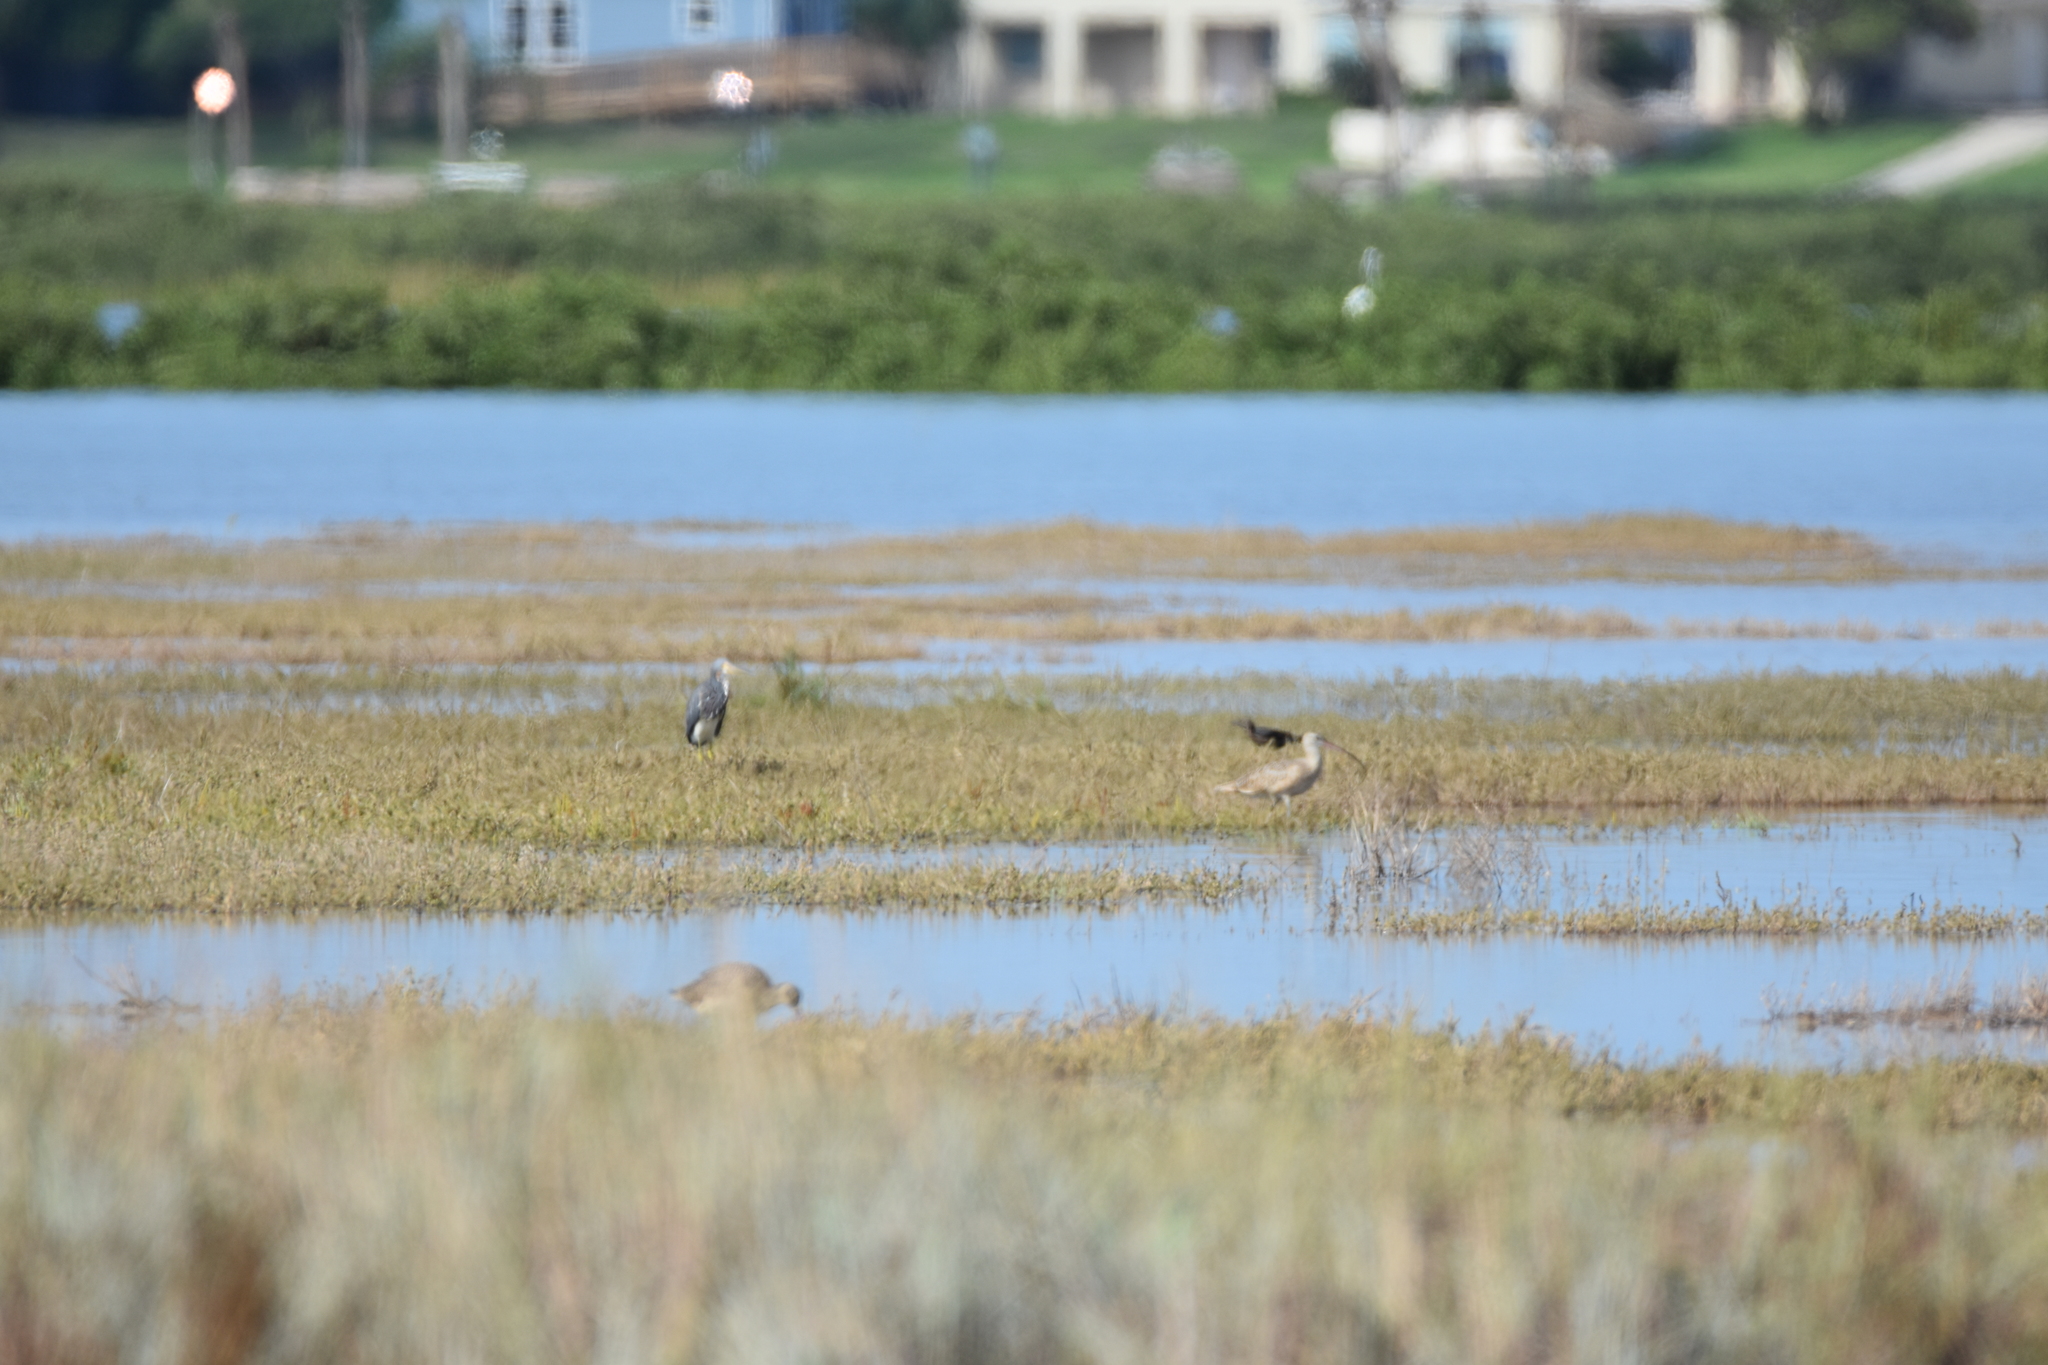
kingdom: Animalia
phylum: Chordata
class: Aves
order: Charadriiformes
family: Scolopacidae
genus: Numenius
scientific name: Numenius americanus
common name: Long-billed curlew
